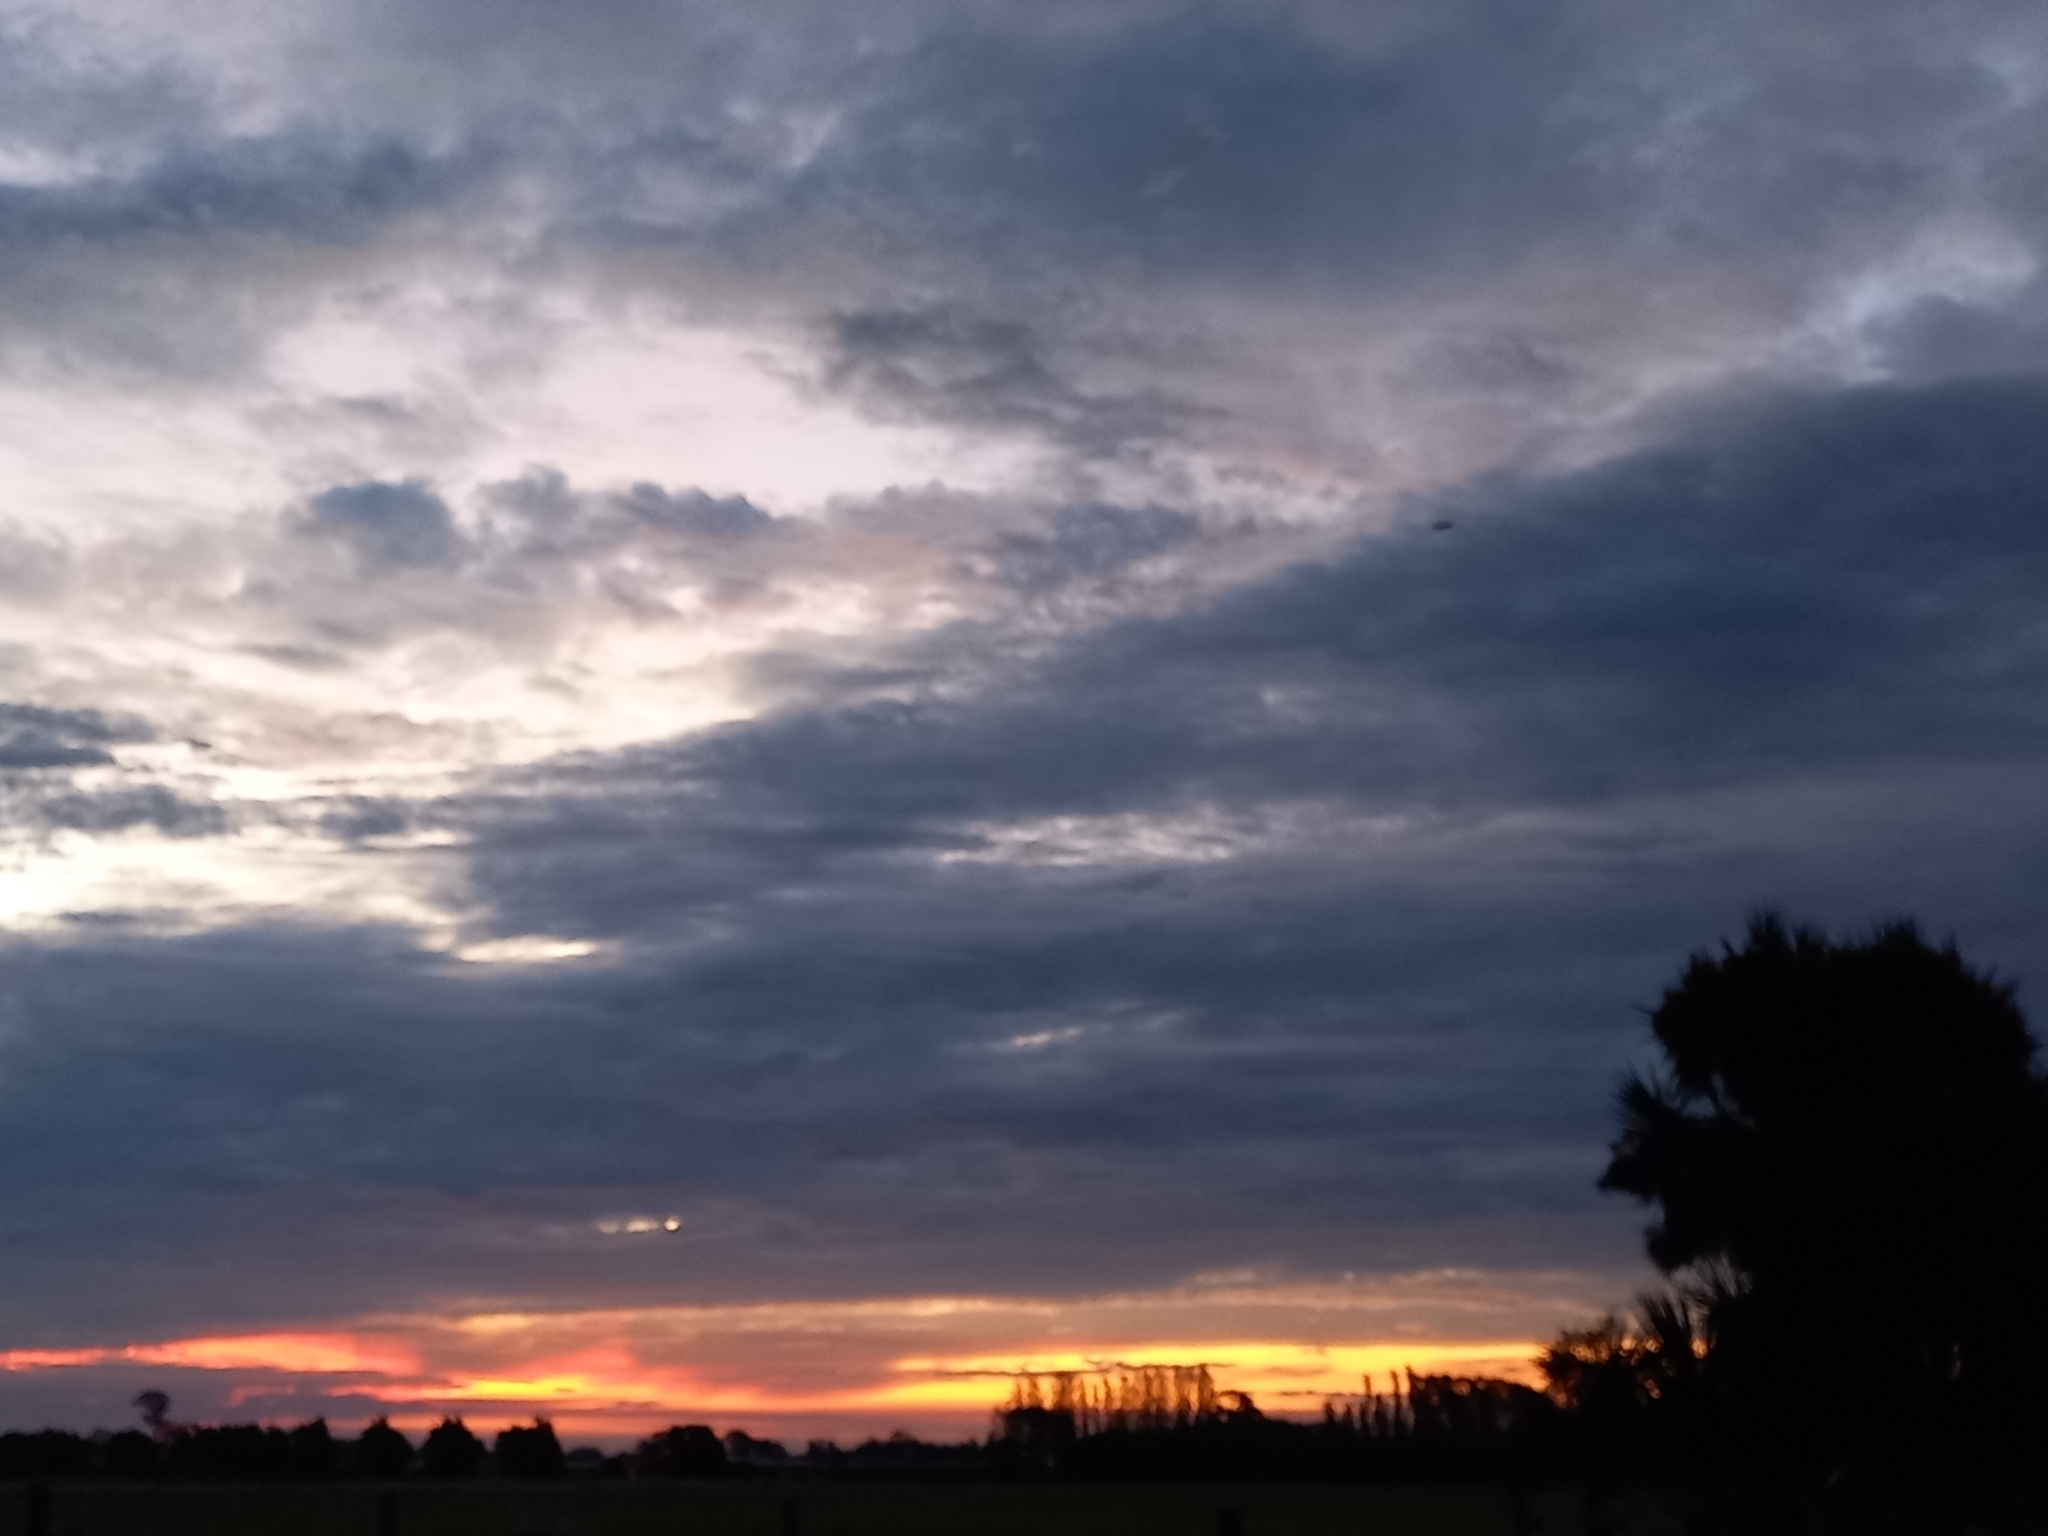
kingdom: Plantae
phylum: Tracheophyta
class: Liliopsida
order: Asparagales
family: Asparagaceae
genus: Cordyline
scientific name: Cordyline australis
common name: Cabbage-palm
